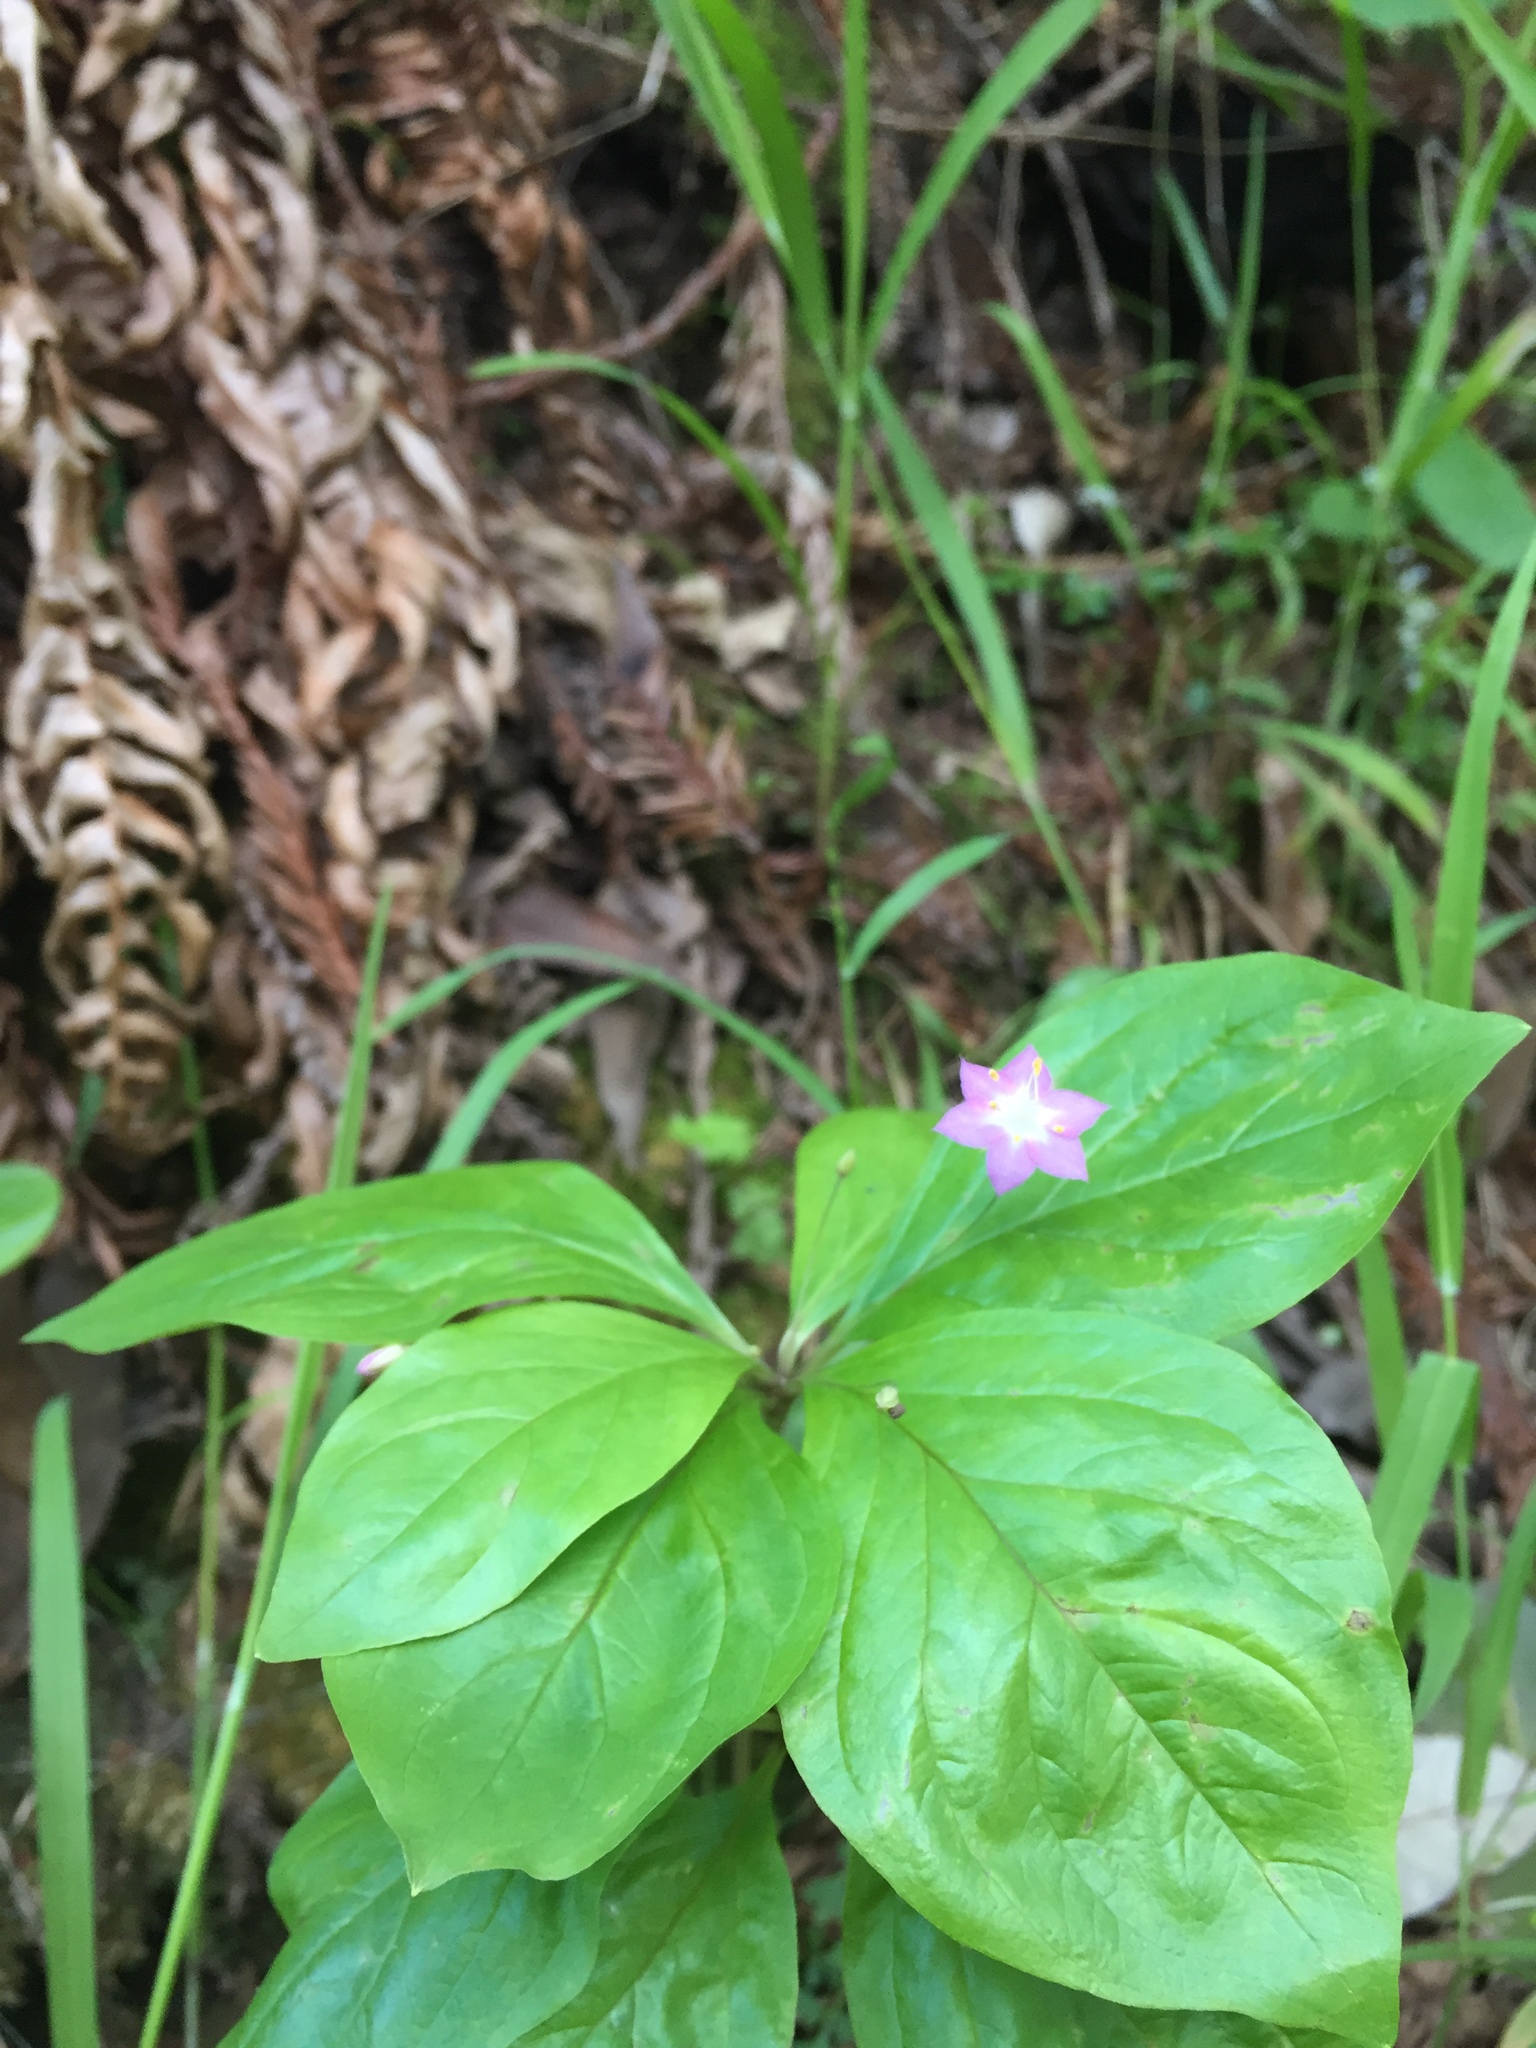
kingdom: Plantae
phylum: Tracheophyta
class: Magnoliopsida
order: Ericales
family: Primulaceae
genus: Lysimachia
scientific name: Lysimachia latifolia
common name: Pacific starflower
